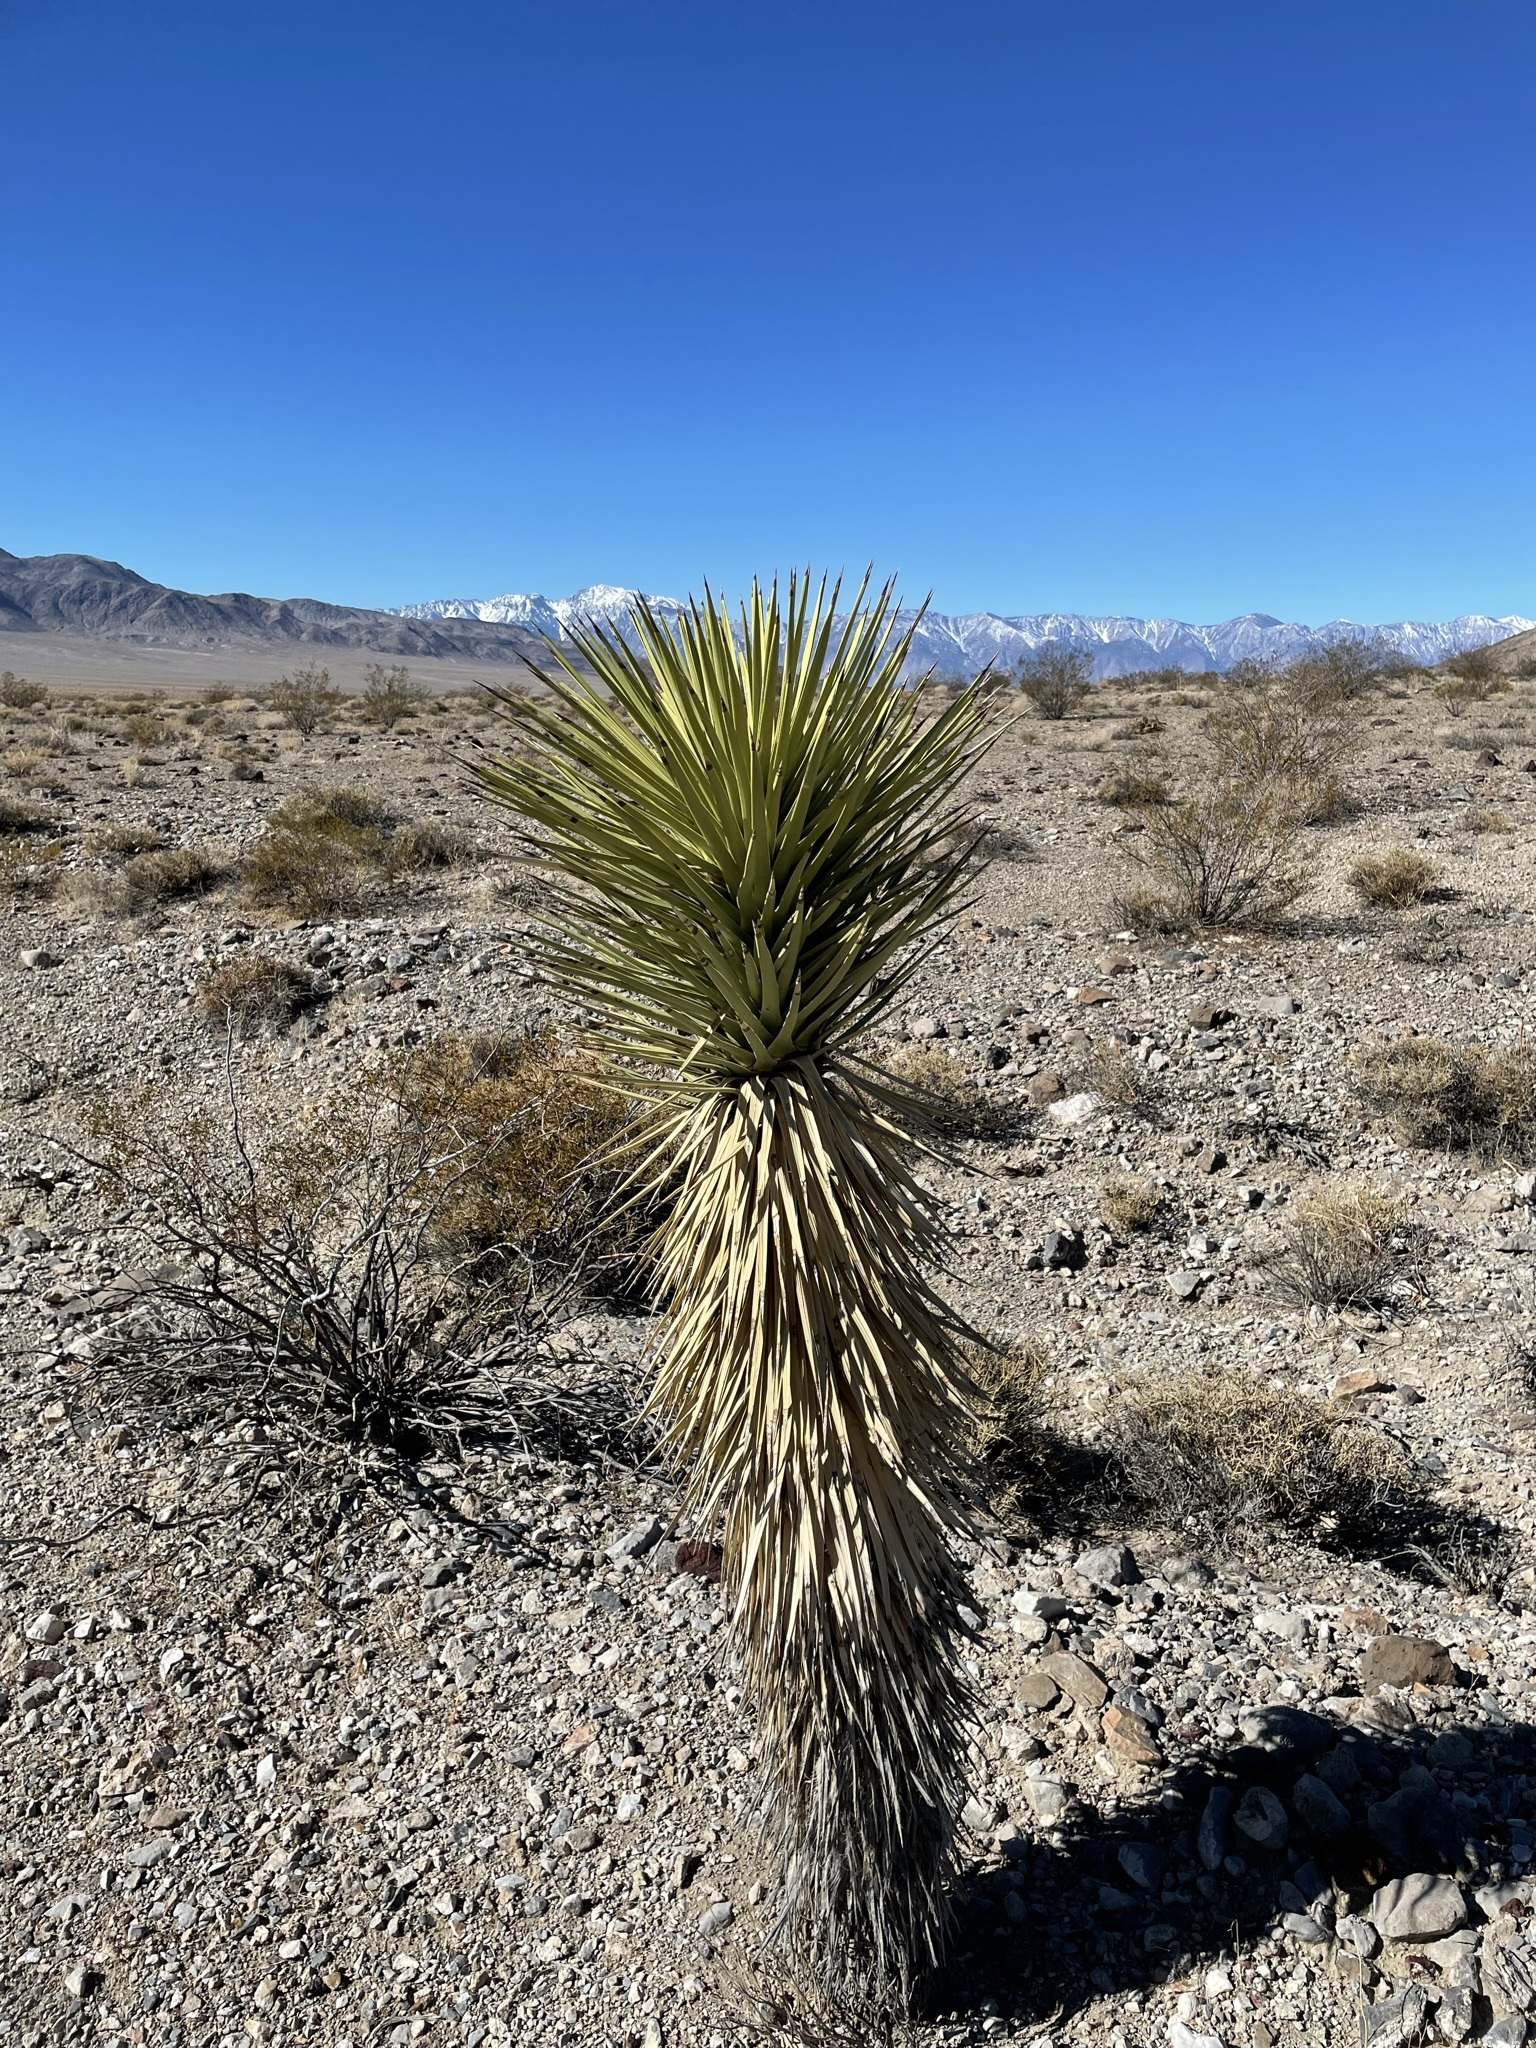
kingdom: Plantae
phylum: Tracheophyta
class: Liliopsida
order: Asparagales
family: Asparagaceae
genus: Yucca
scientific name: Yucca brevifolia
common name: Joshua tree
